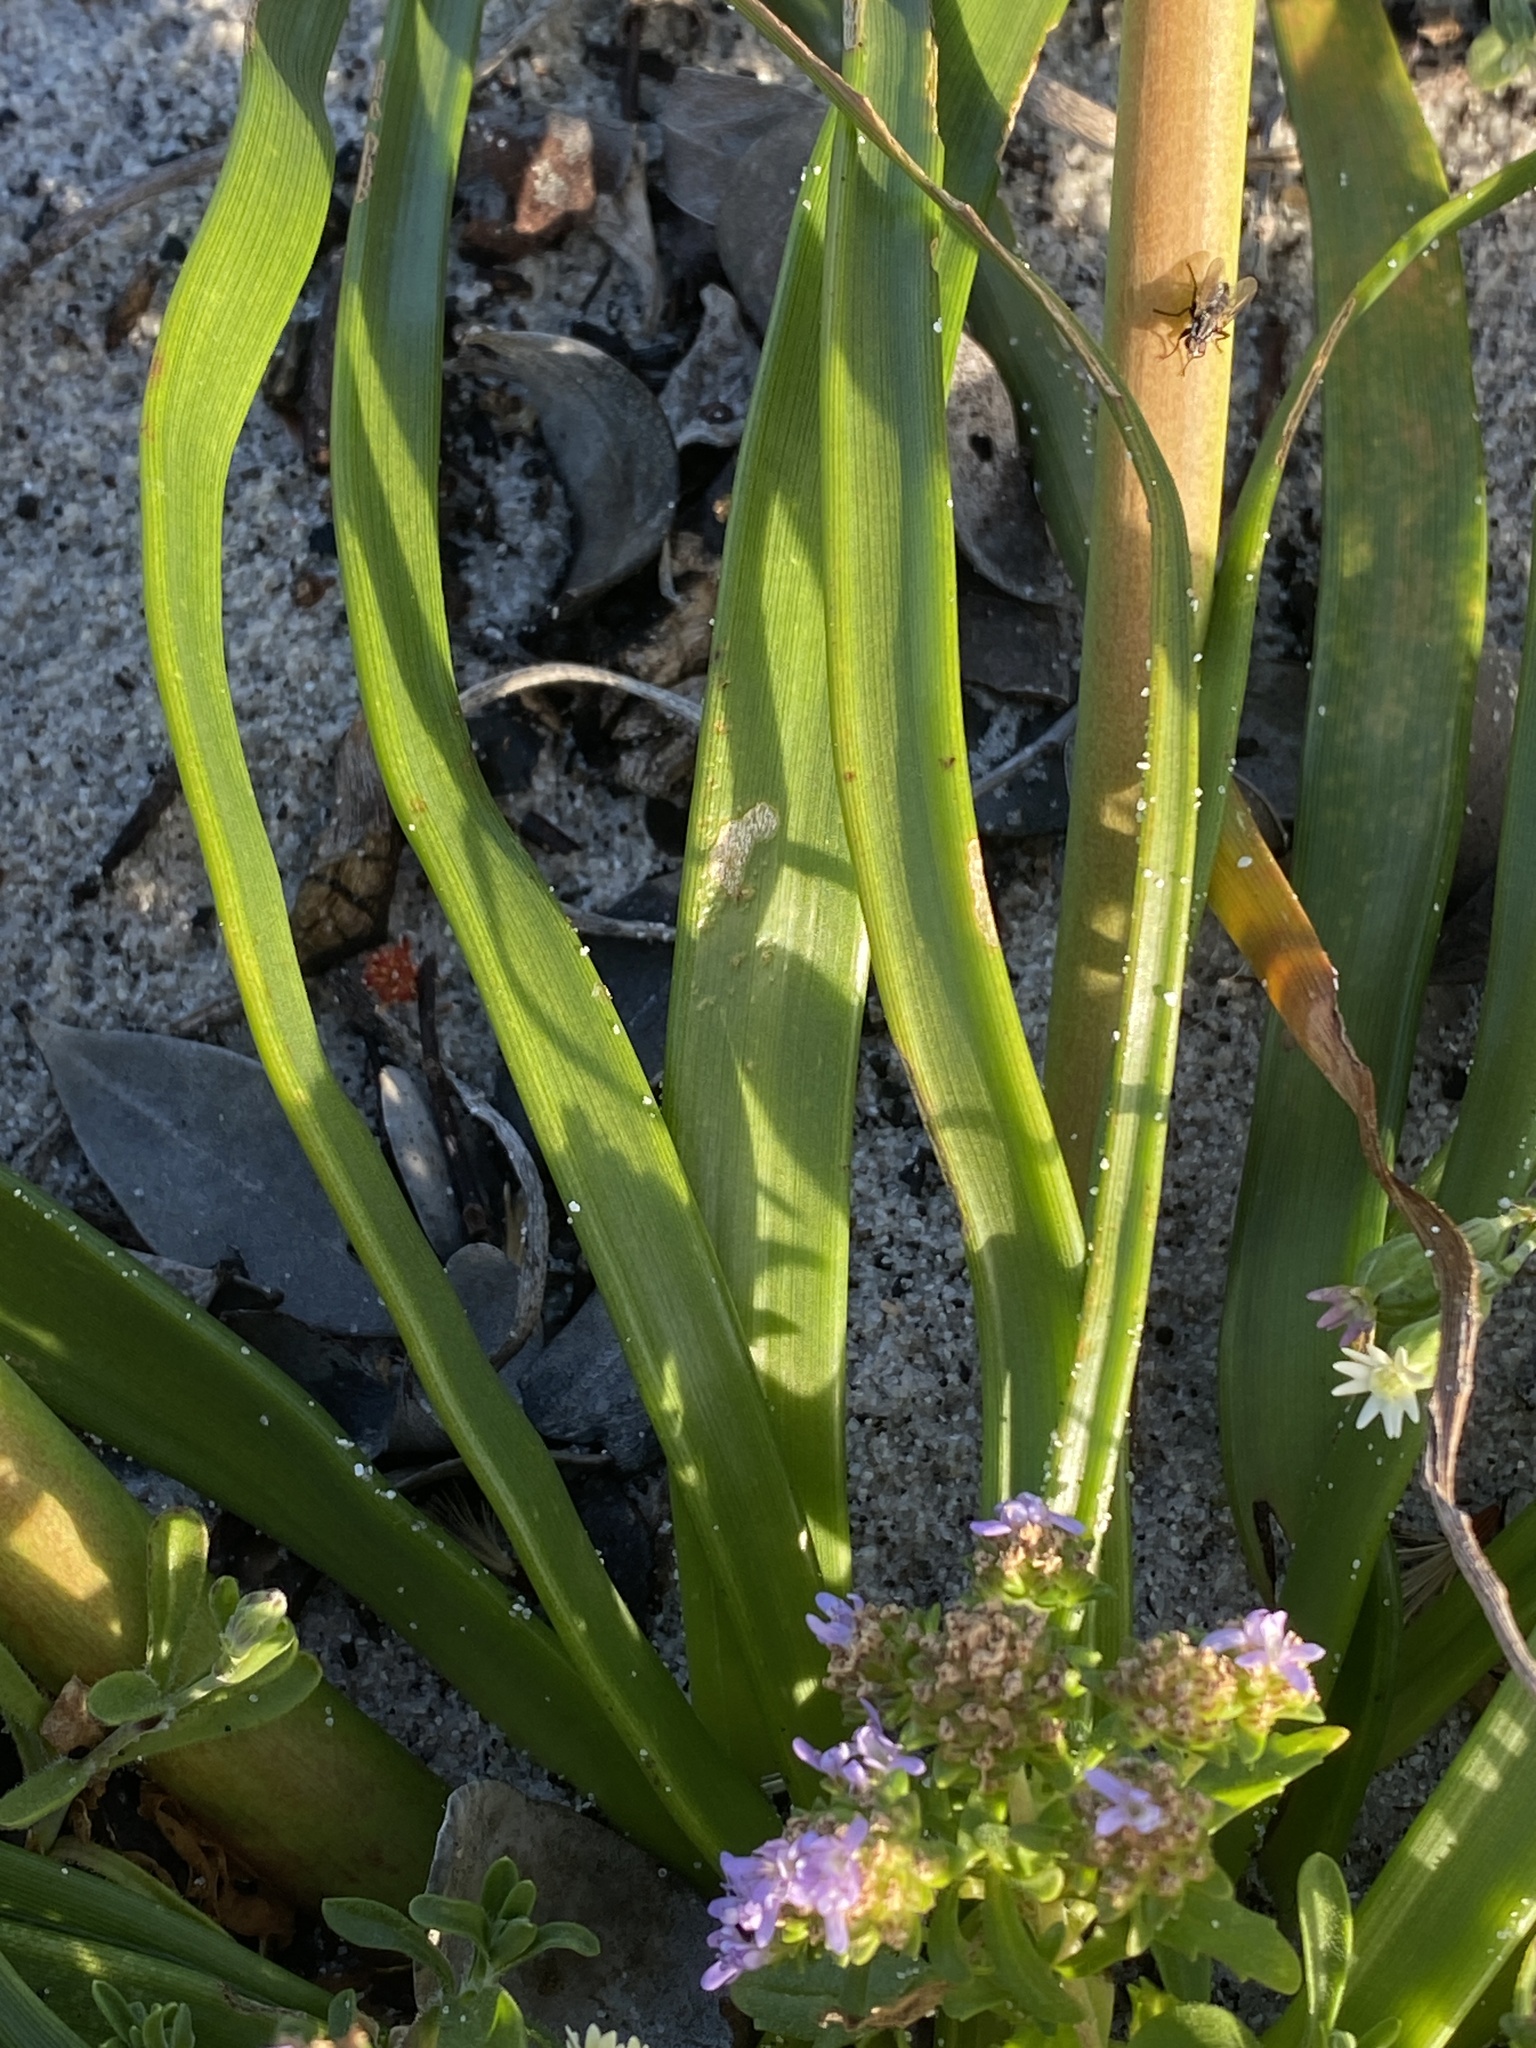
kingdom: Plantae
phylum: Tracheophyta
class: Liliopsida
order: Asparagales
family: Asphodelaceae
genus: Trachyandra
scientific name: Trachyandra divaricata
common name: Dune onionweed
